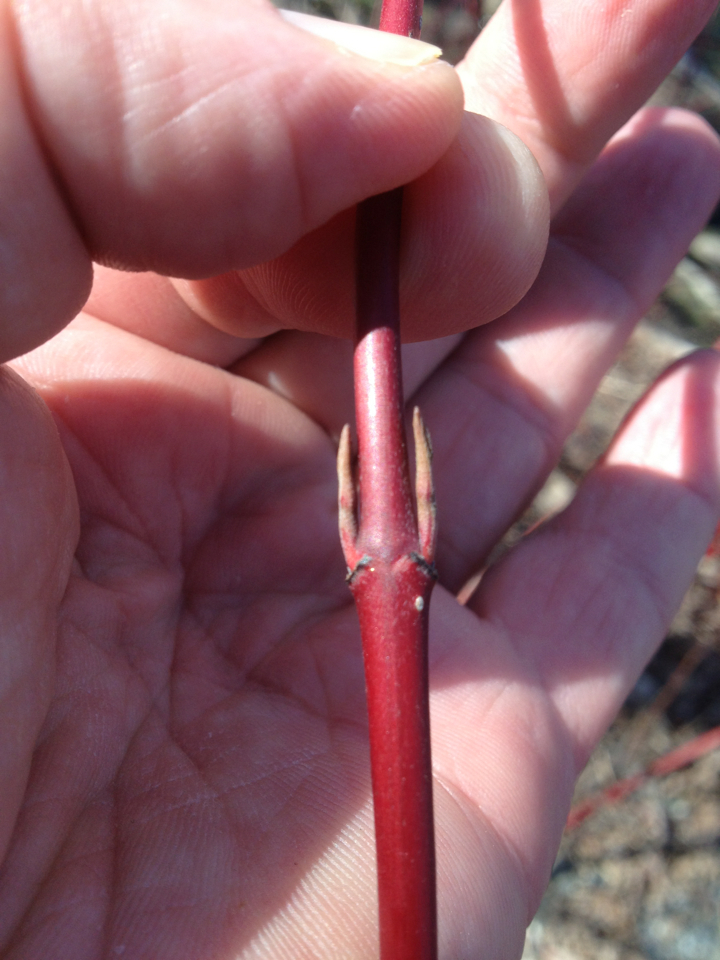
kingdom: Plantae
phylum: Tracheophyta
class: Magnoliopsida
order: Cornales
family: Cornaceae
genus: Cornus
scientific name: Cornus sericea
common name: Red-osier dogwood
